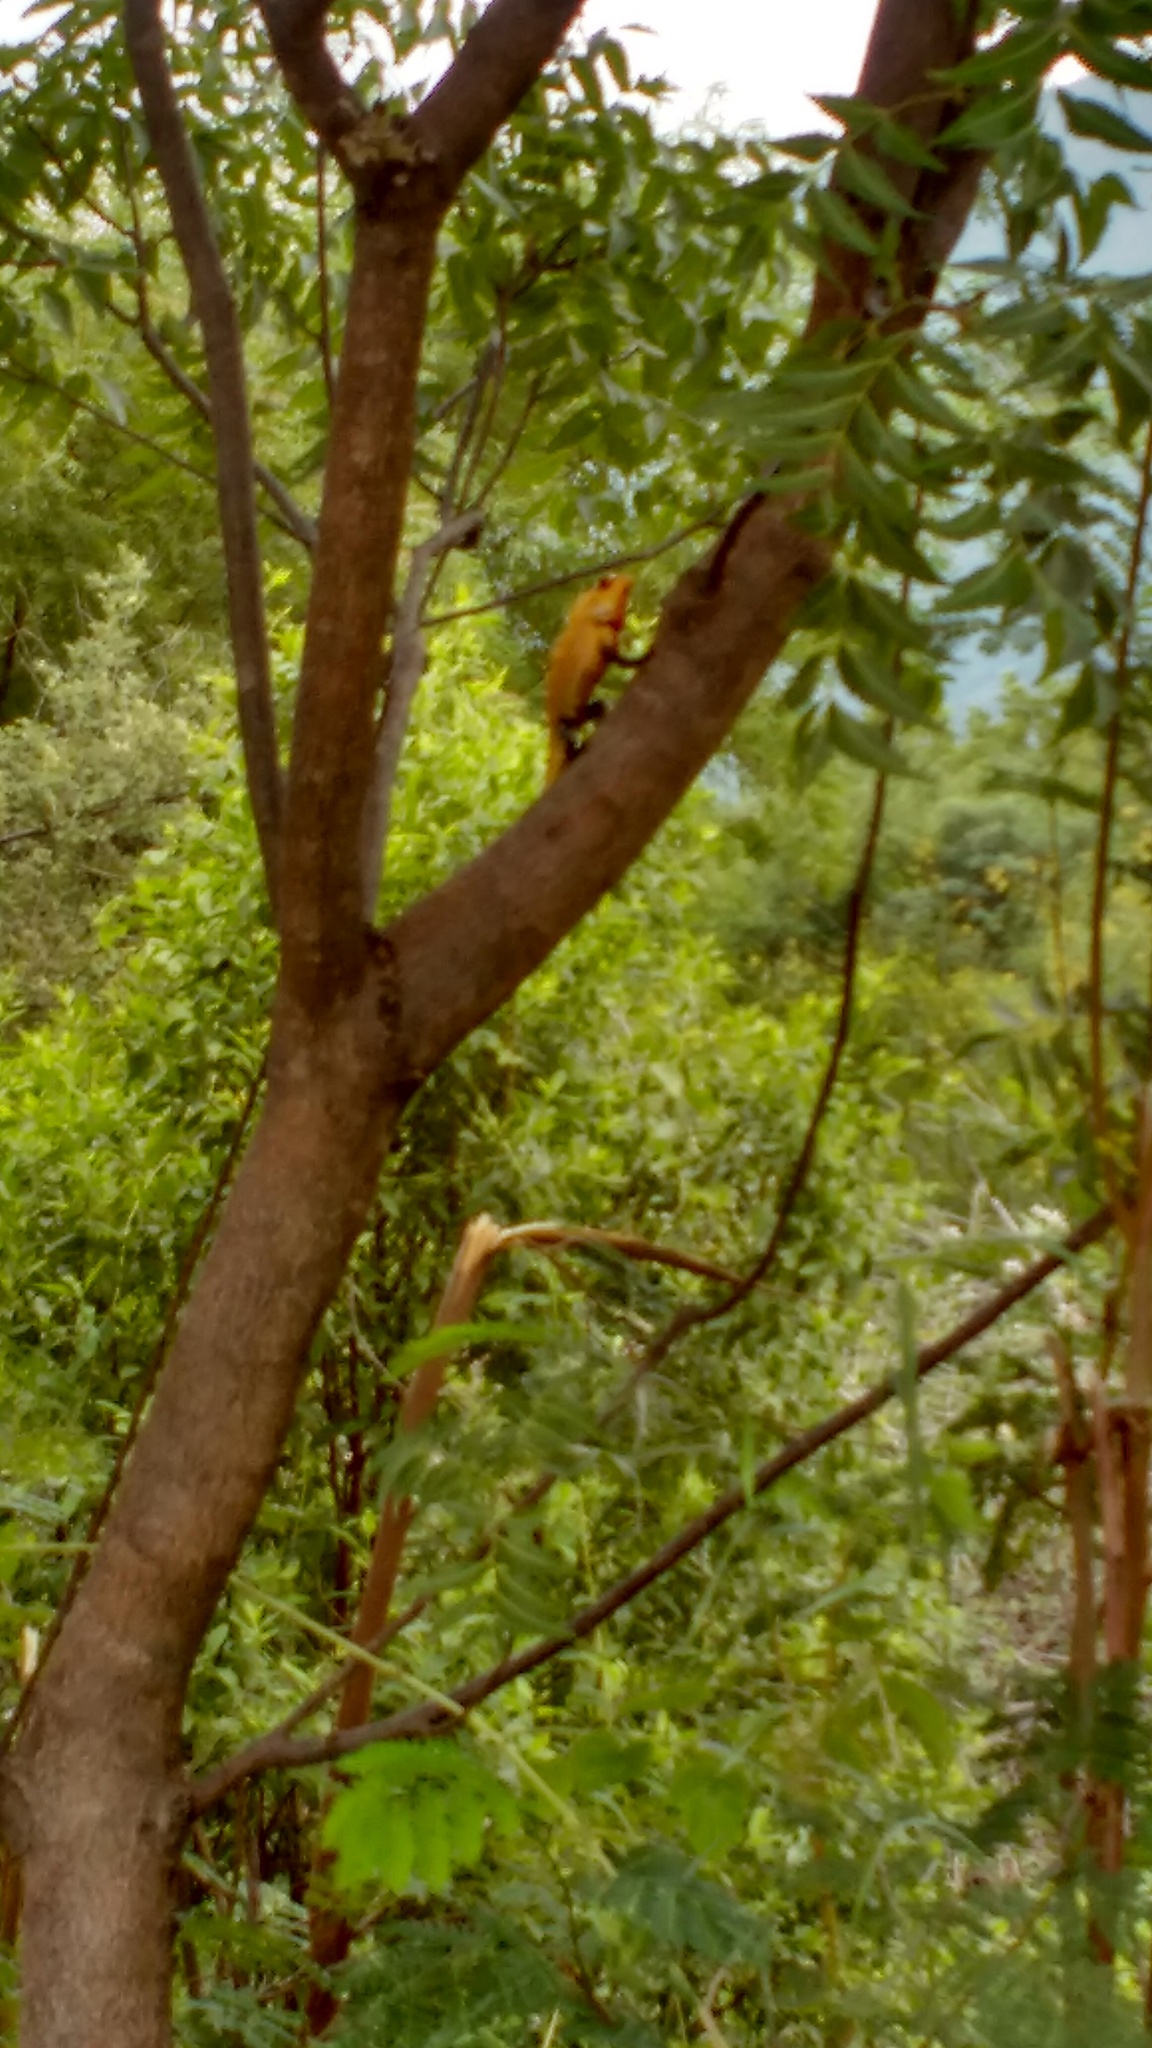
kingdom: Animalia
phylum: Chordata
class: Squamata
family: Agamidae
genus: Calotes
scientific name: Calotes versicolor
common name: Oriental garden lizard
